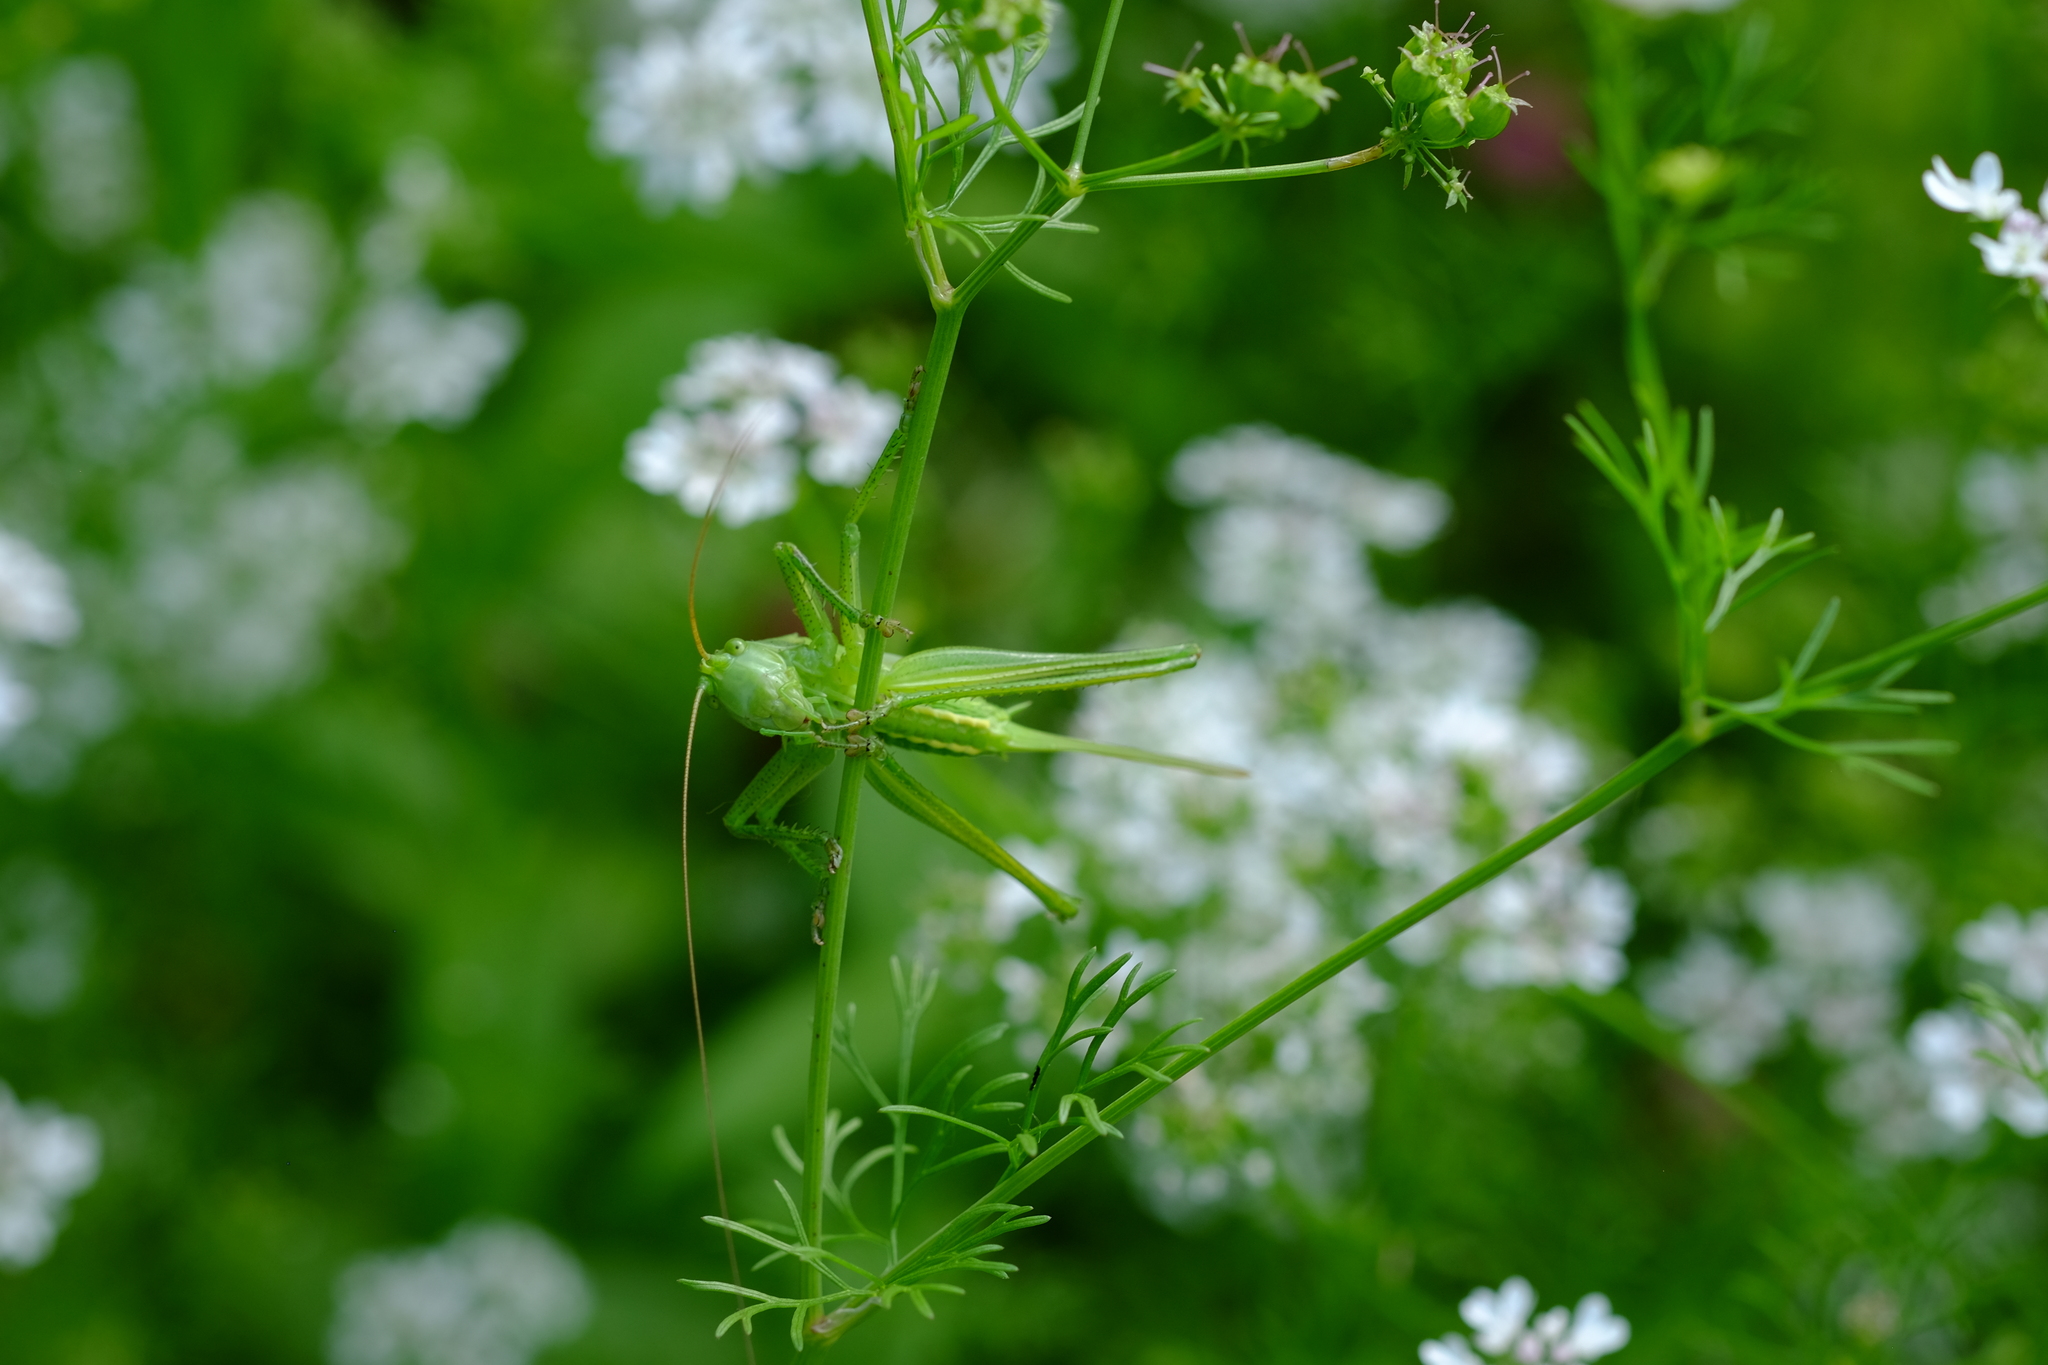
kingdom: Animalia
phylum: Arthropoda
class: Insecta
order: Orthoptera
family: Tettigoniidae
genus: Tettigonia
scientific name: Tettigonia viridissima
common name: Great green bush-cricket
